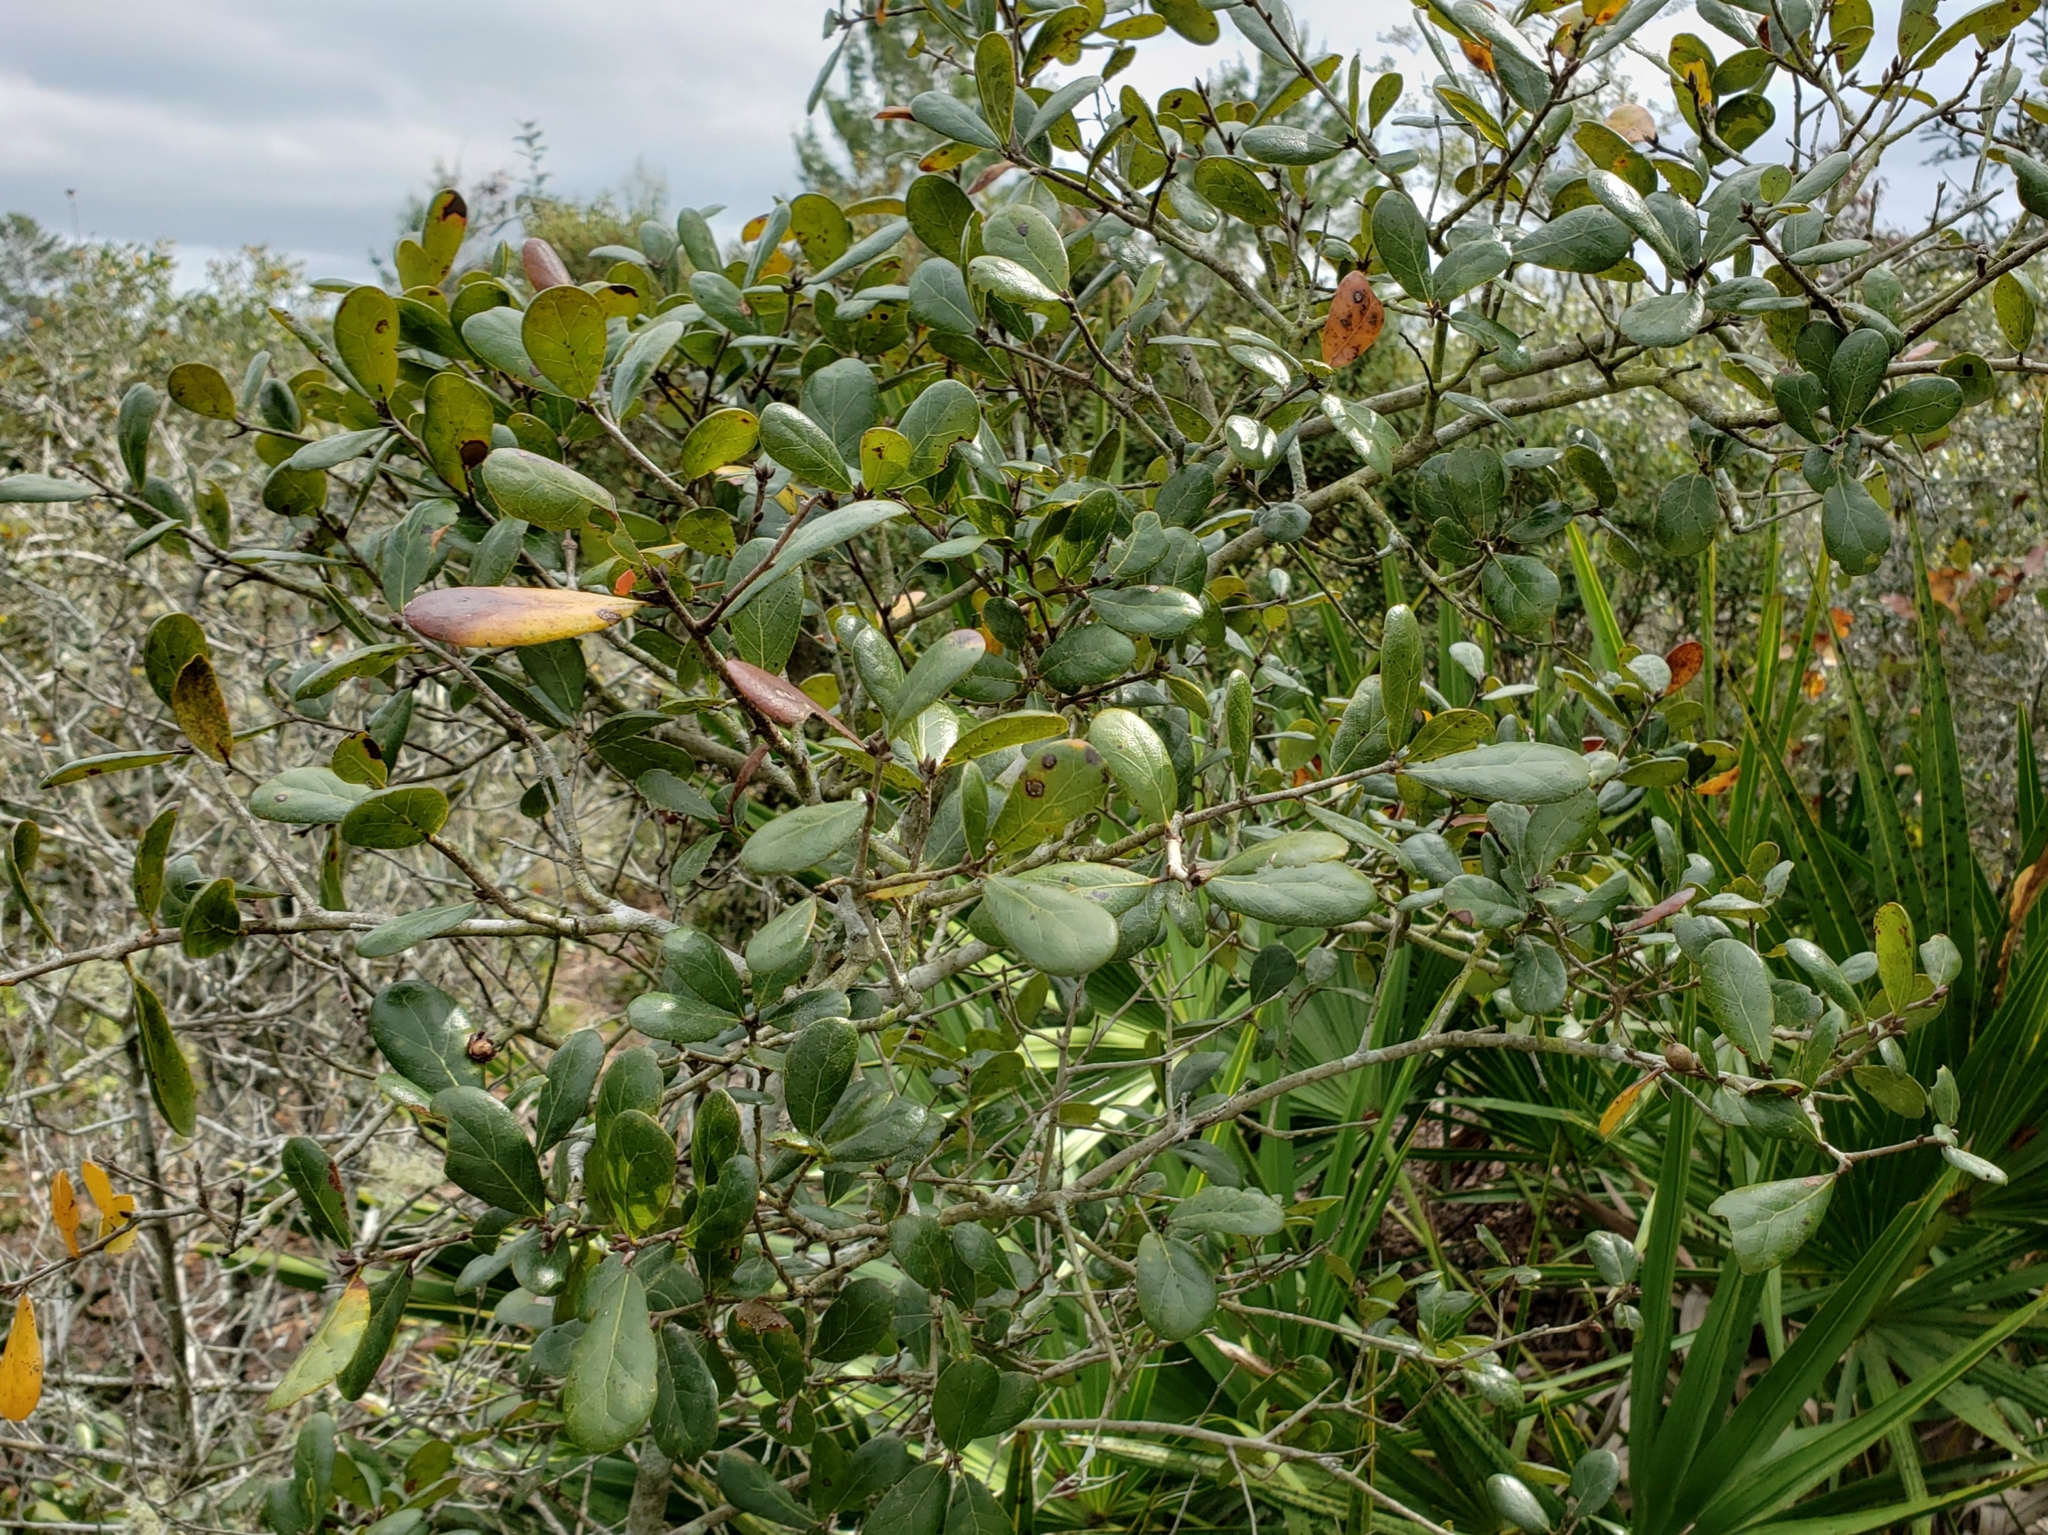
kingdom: Plantae
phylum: Tracheophyta
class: Magnoliopsida
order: Fagales
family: Fagaceae
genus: Quercus
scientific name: Quercus myrtifolia
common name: Myrtle oak
